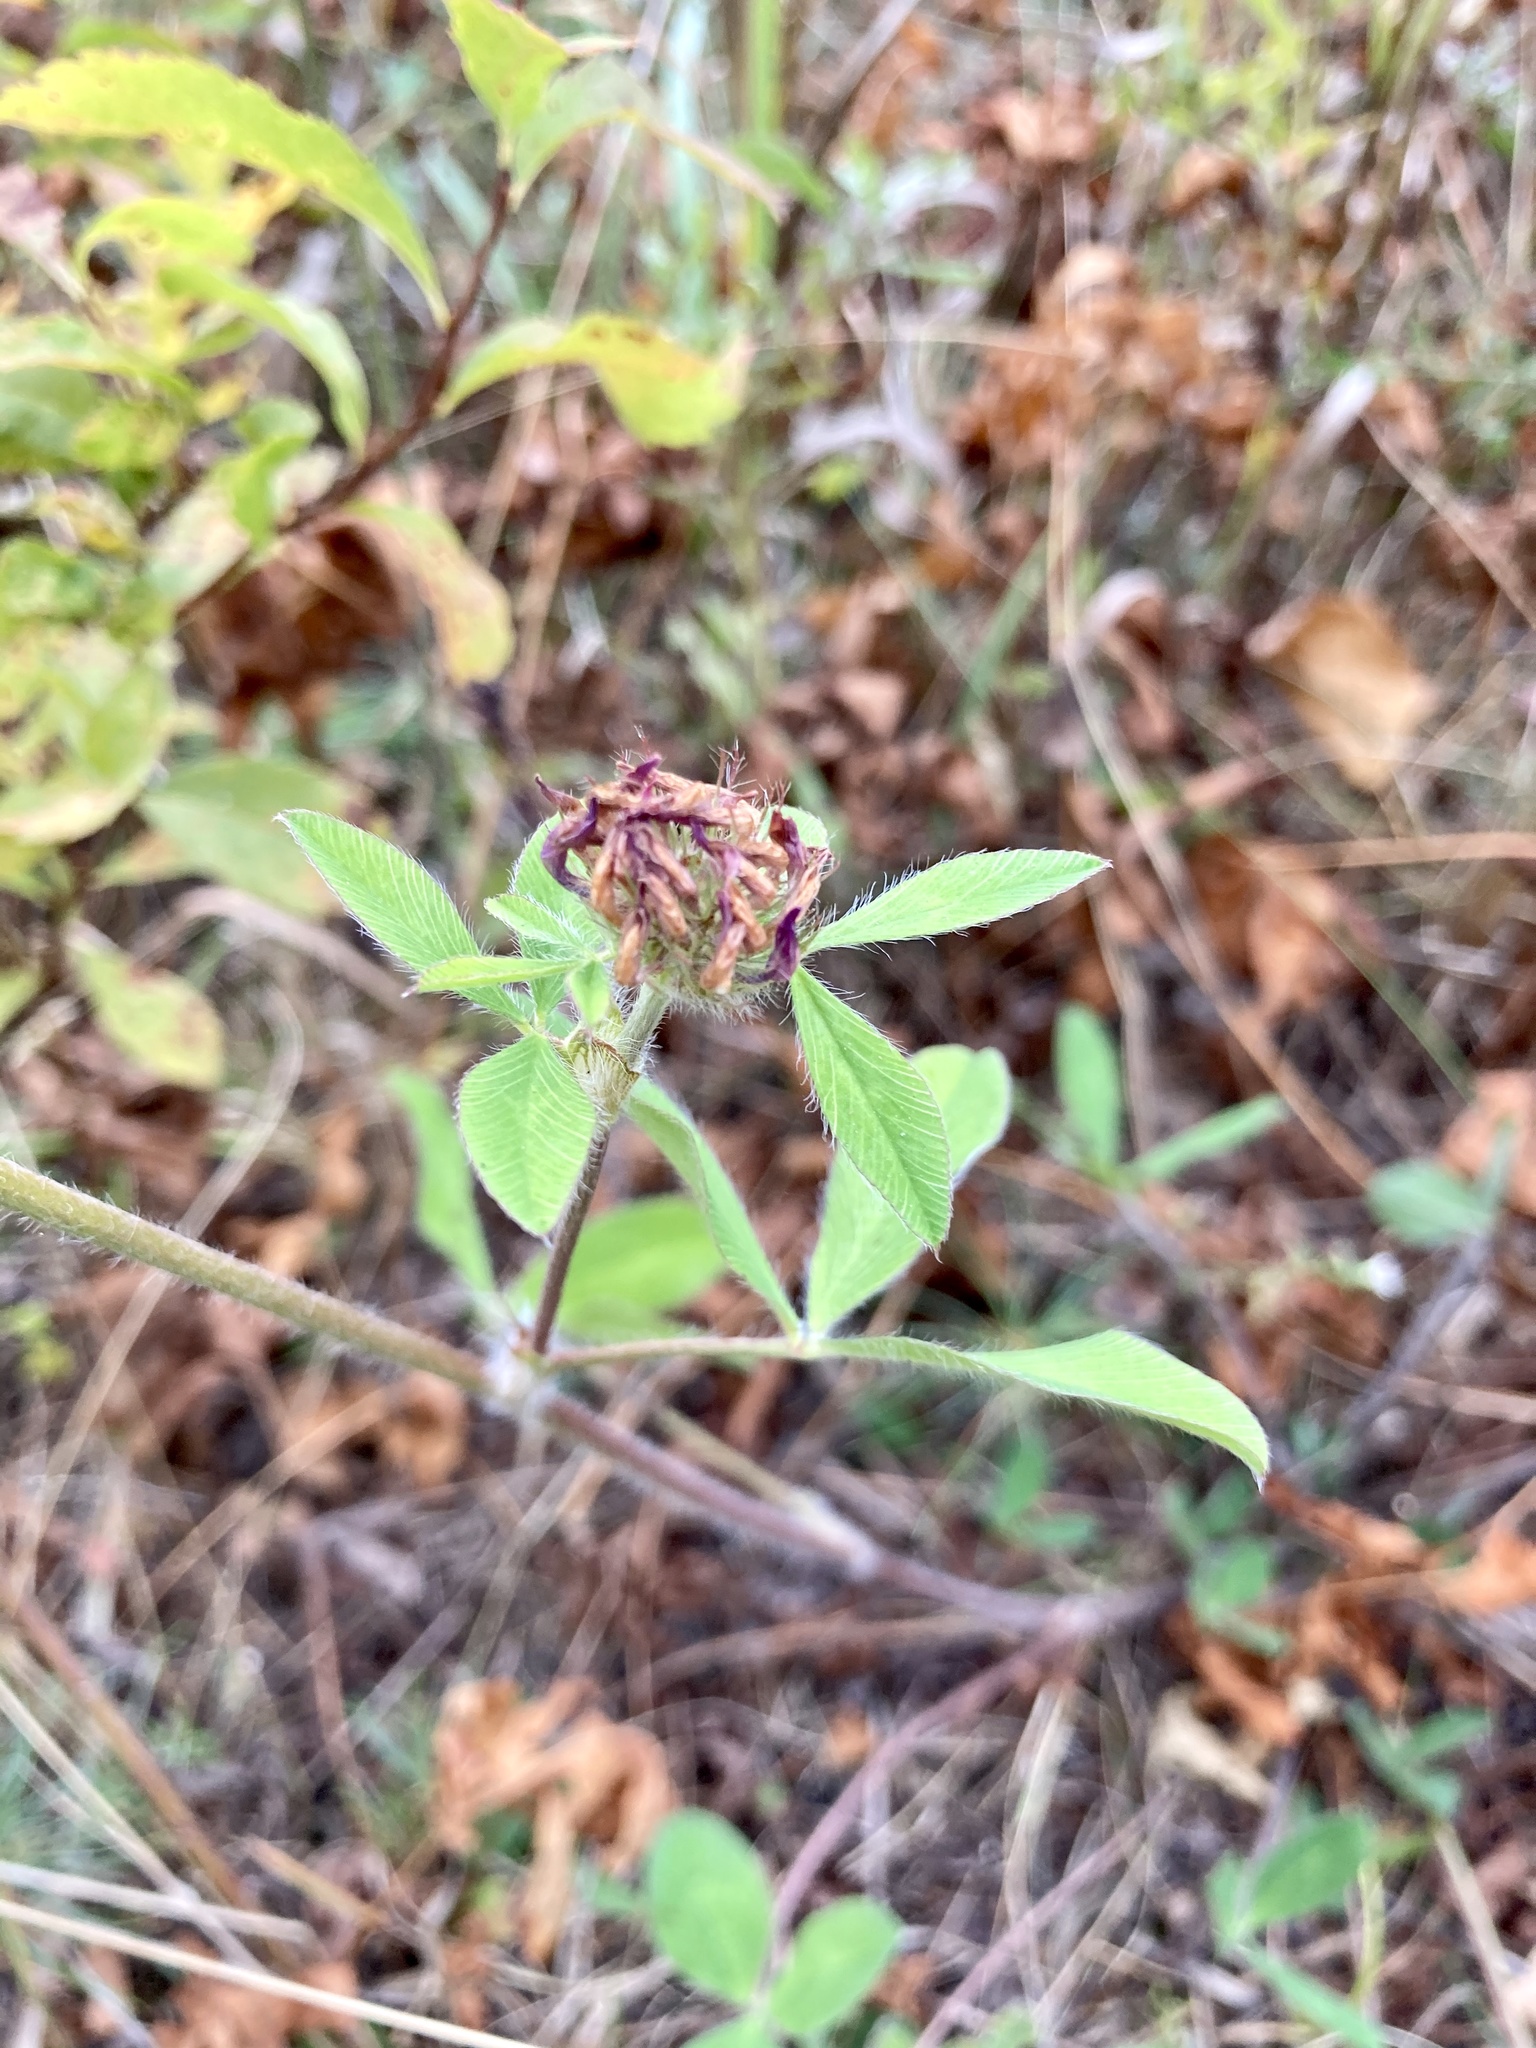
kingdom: Plantae
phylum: Tracheophyta
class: Magnoliopsida
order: Fabales
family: Fabaceae
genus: Trifolium
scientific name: Trifolium pratense
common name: Red clover
